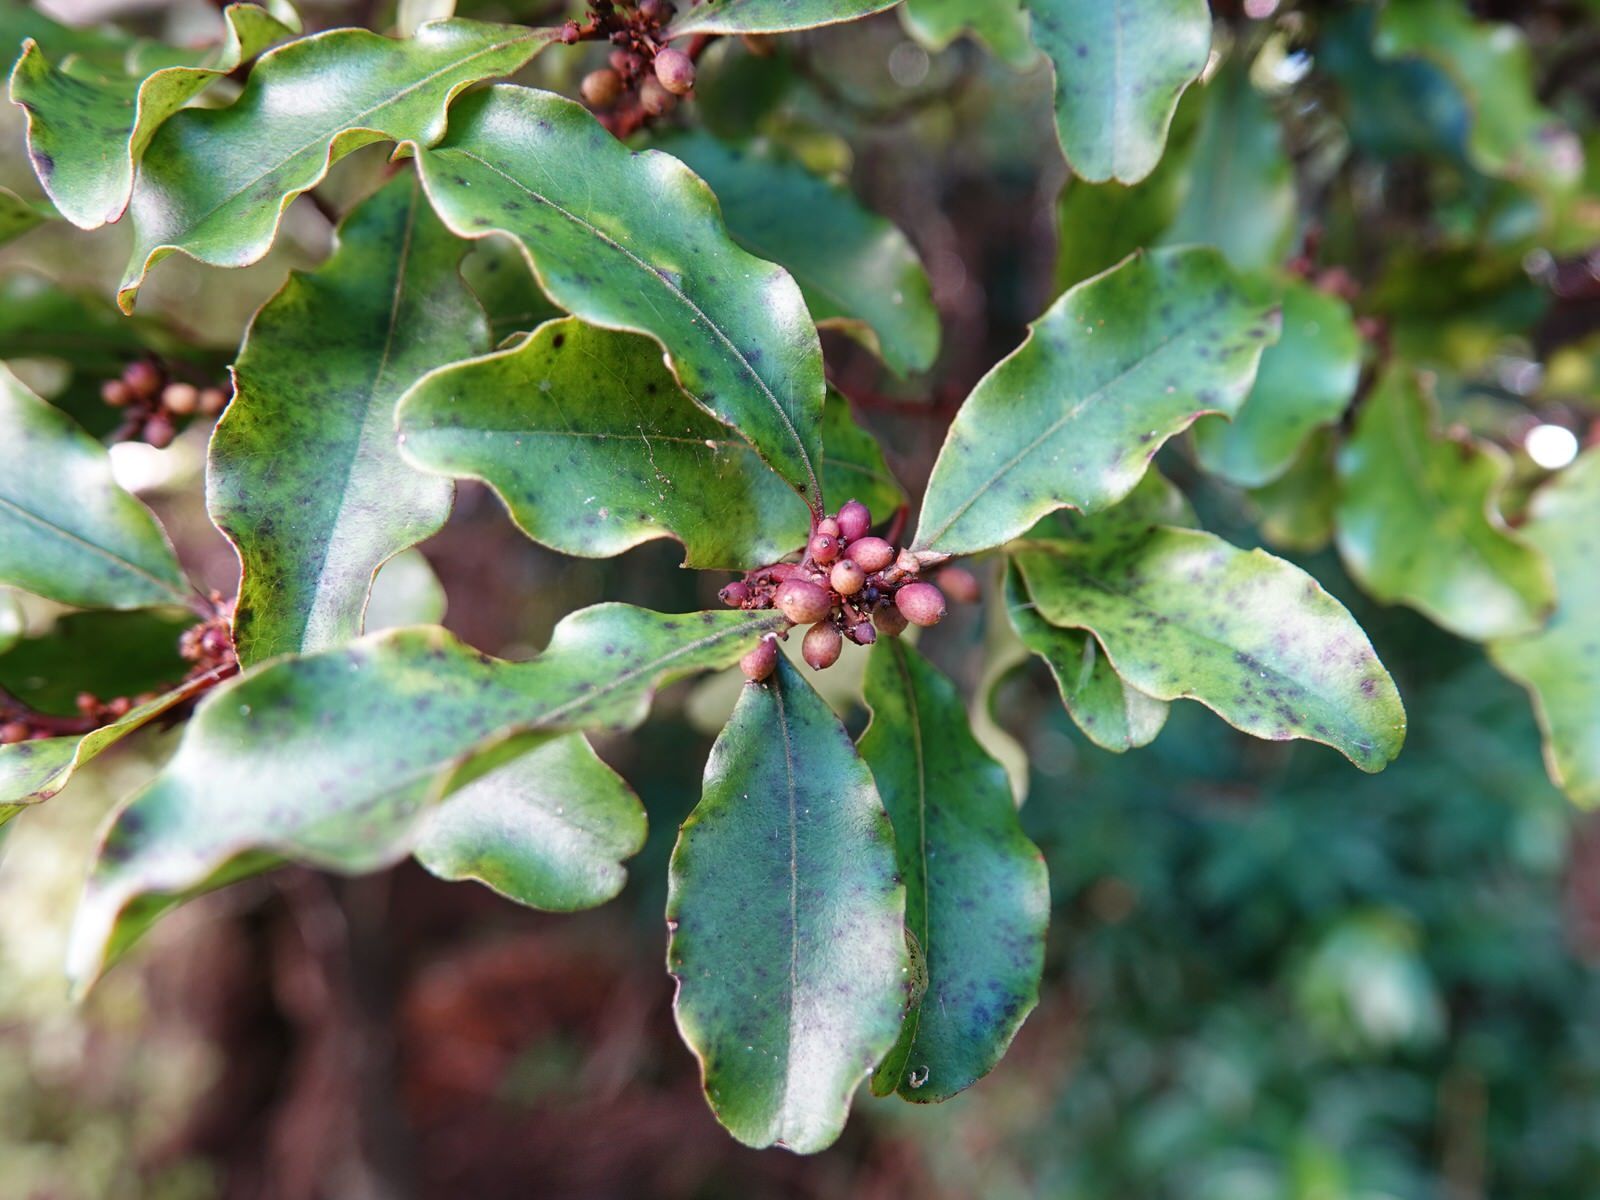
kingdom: Plantae
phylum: Tracheophyta
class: Magnoliopsida
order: Ericales
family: Primulaceae
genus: Myrsine
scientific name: Myrsine australis
